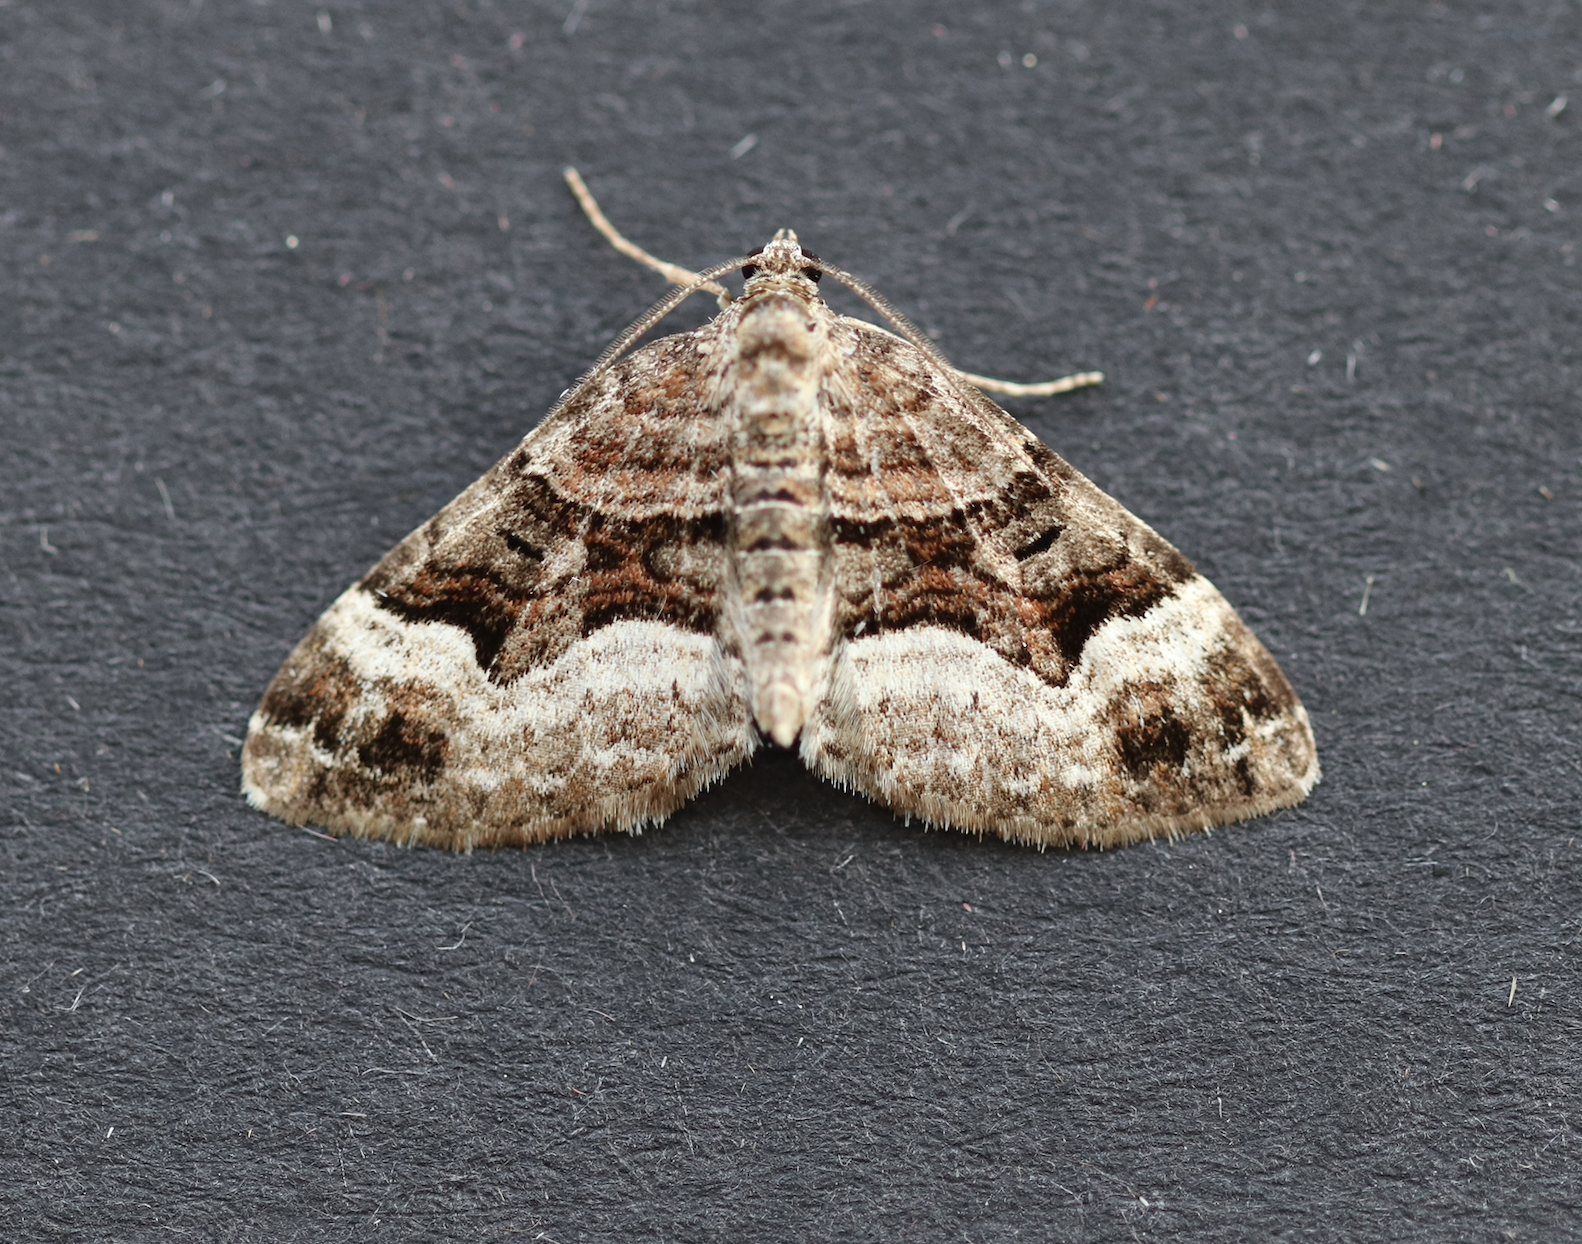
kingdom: Animalia
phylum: Arthropoda
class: Insecta
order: Lepidoptera
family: Geometridae
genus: Xanthorhoe
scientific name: Xanthorhoe biriviata
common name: Balsam carpet
